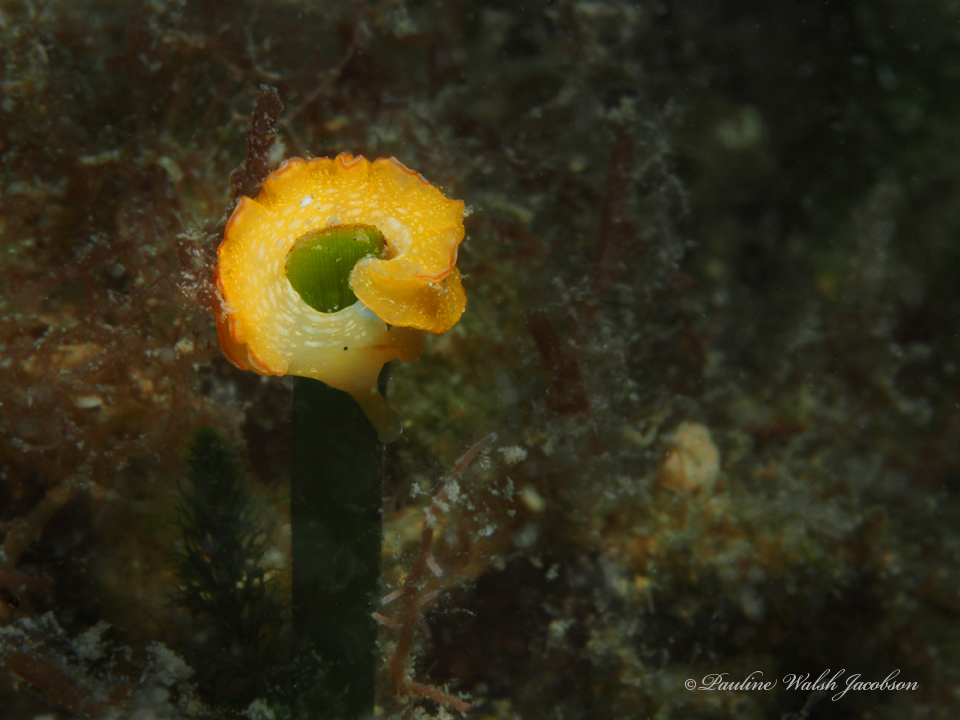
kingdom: Animalia
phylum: Mollusca
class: Gastropoda
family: Plakobranchidae
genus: Elysia
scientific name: Elysia crispata
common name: Lettuce slug
